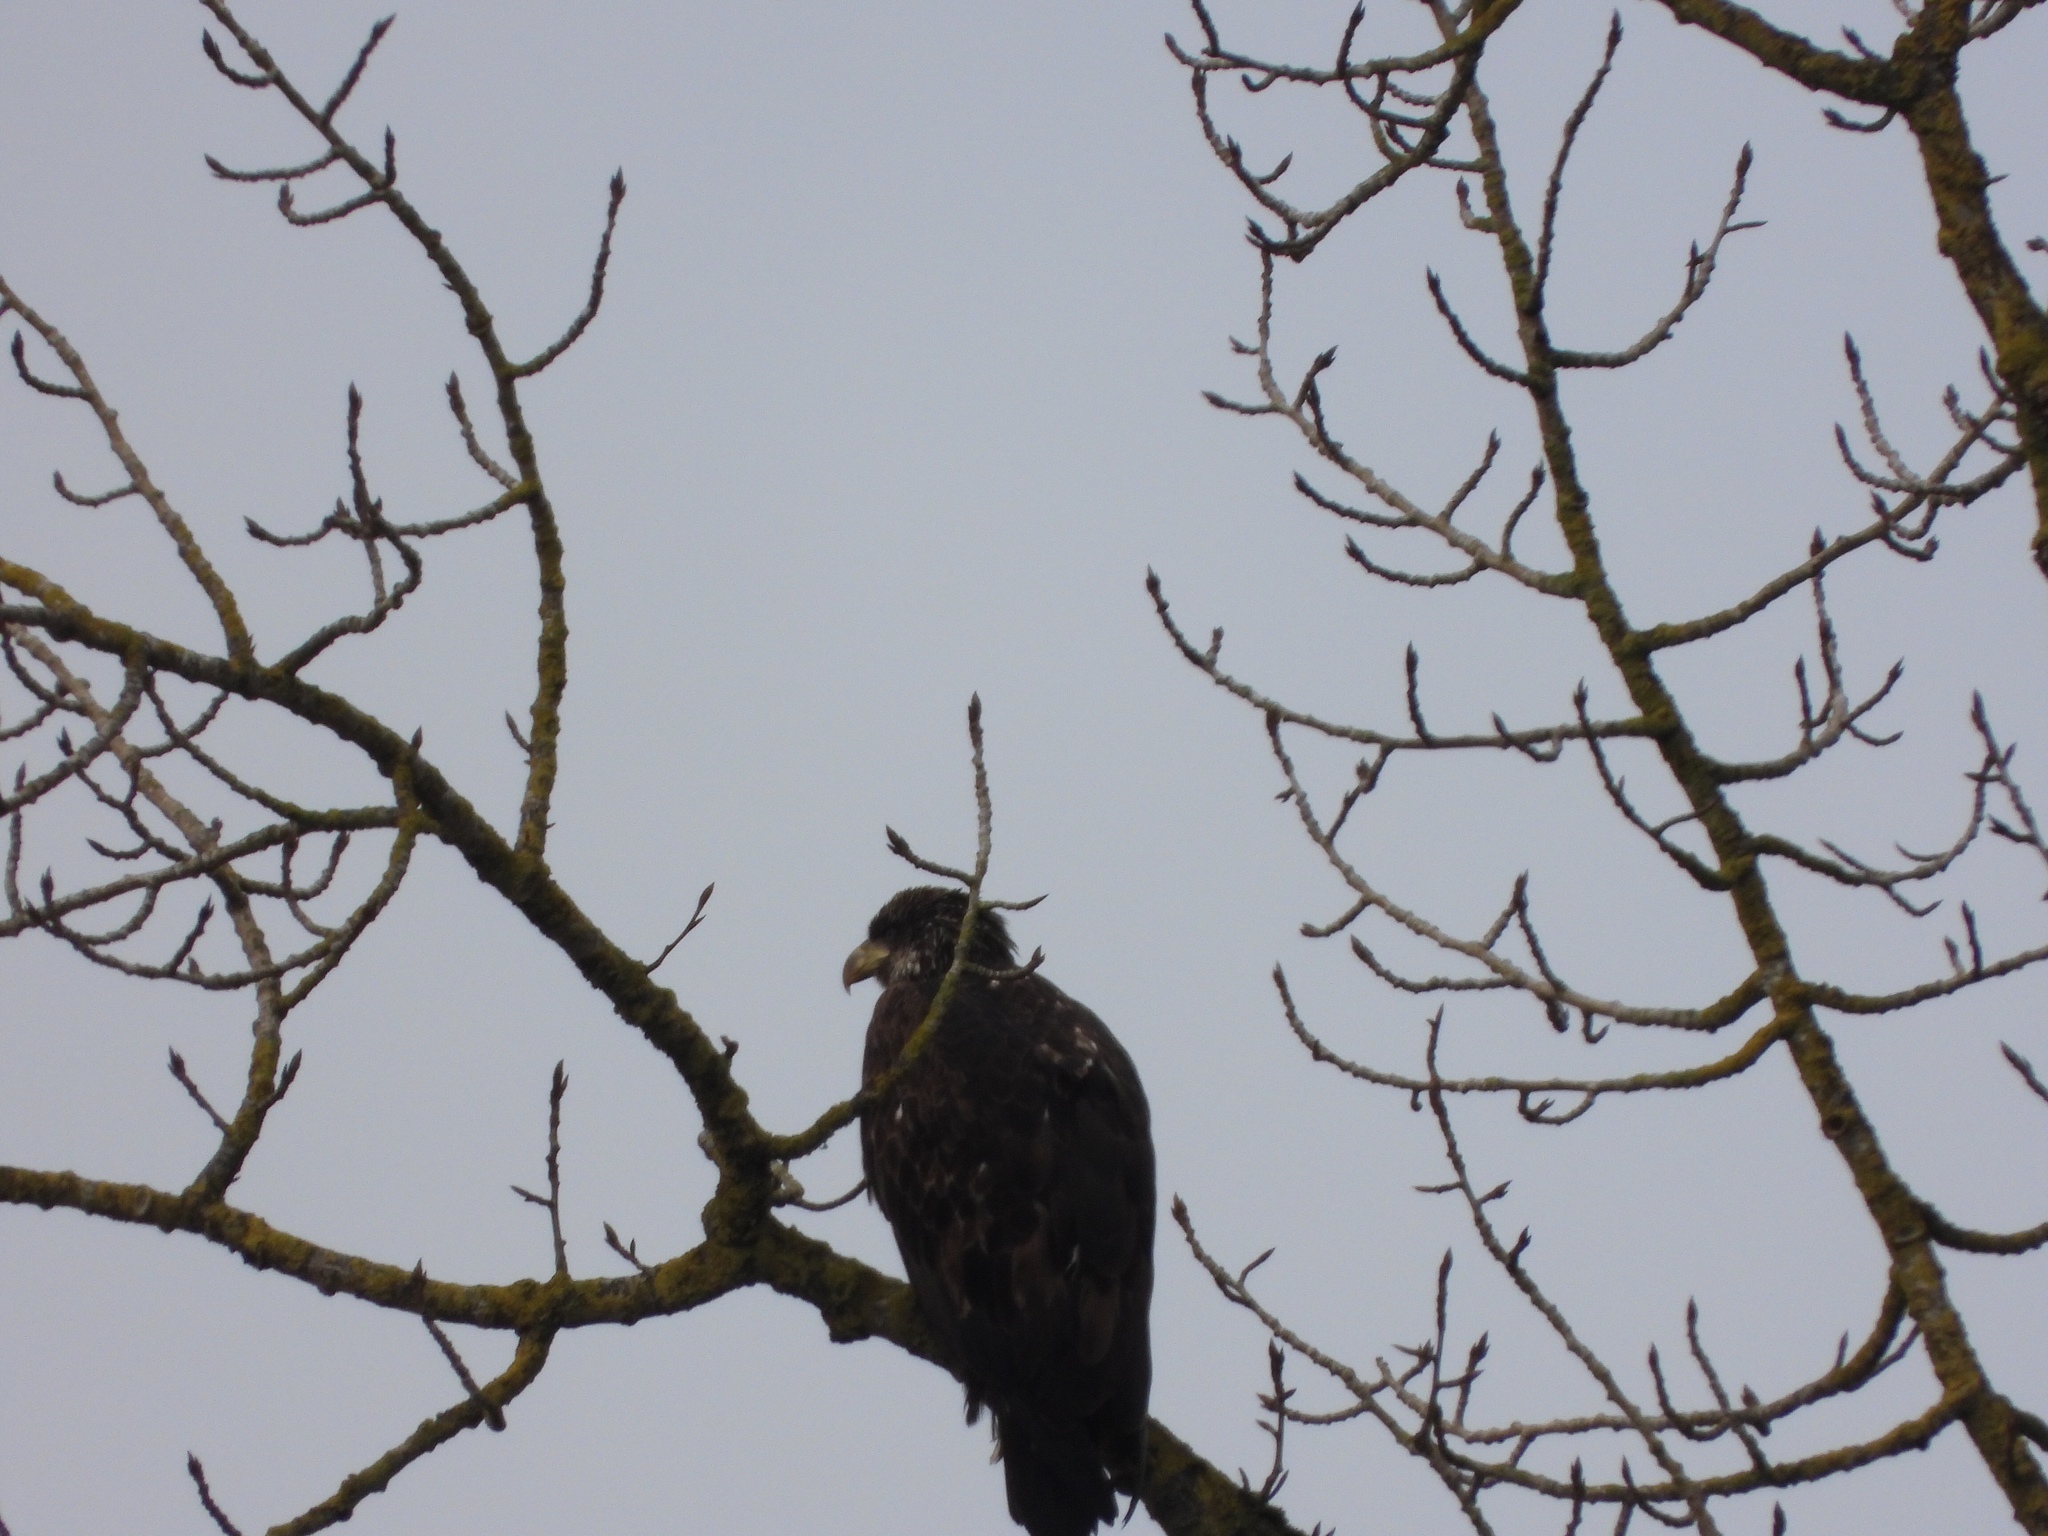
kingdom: Animalia
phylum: Chordata
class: Aves
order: Accipitriformes
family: Accipitridae
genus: Haliaeetus
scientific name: Haliaeetus leucocephalus
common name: Bald eagle
